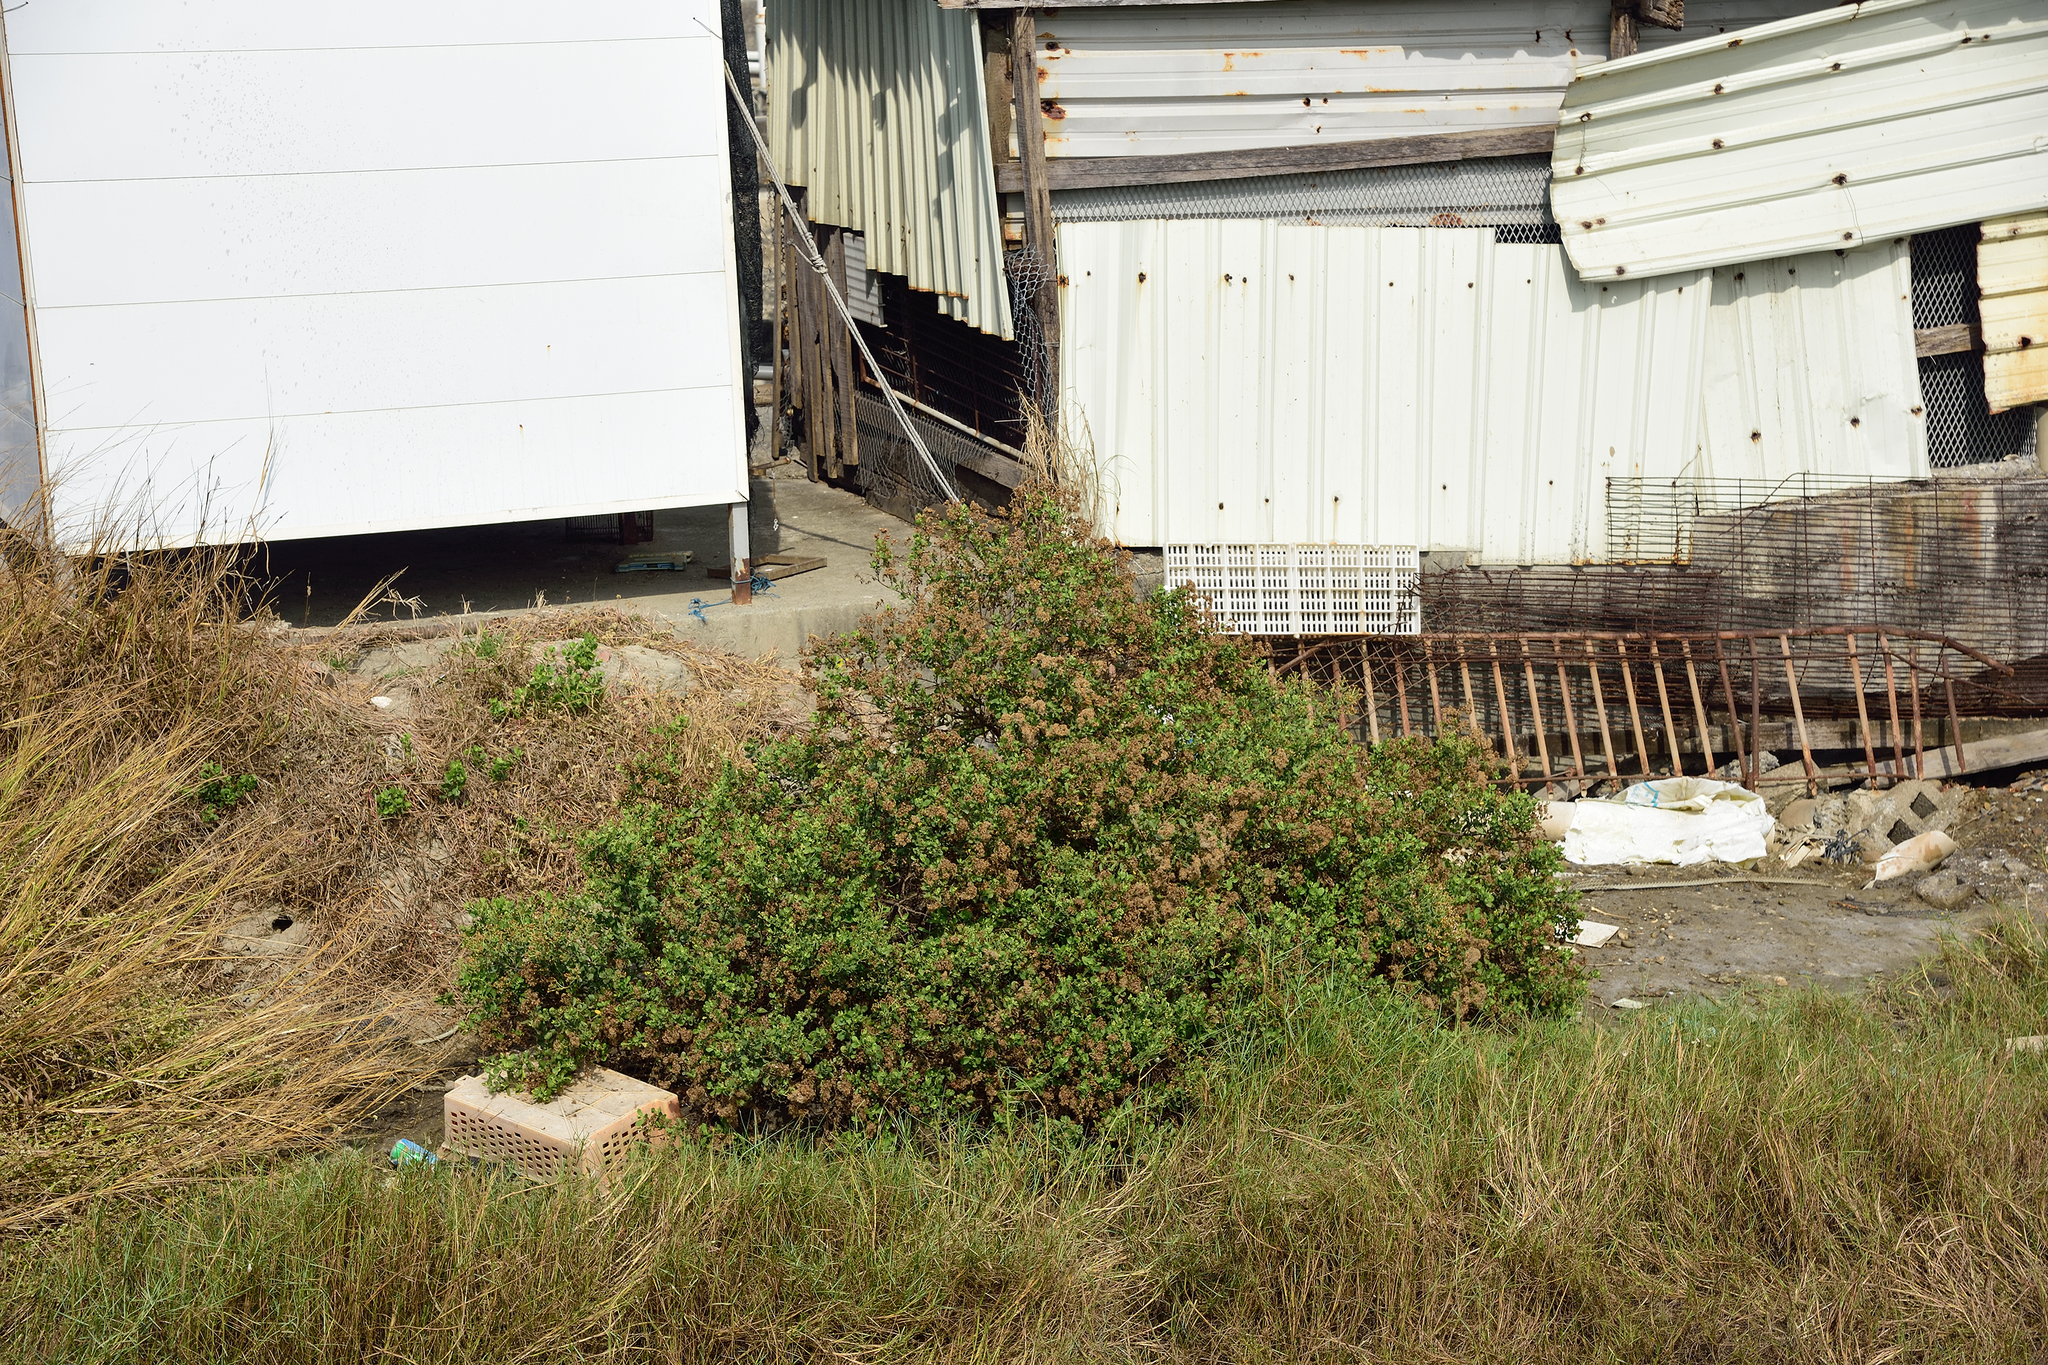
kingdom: Plantae
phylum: Tracheophyta
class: Magnoliopsida
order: Asterales
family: Asteraceae
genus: Pluchea
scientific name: Pluchea indica
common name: Indian fleabane
